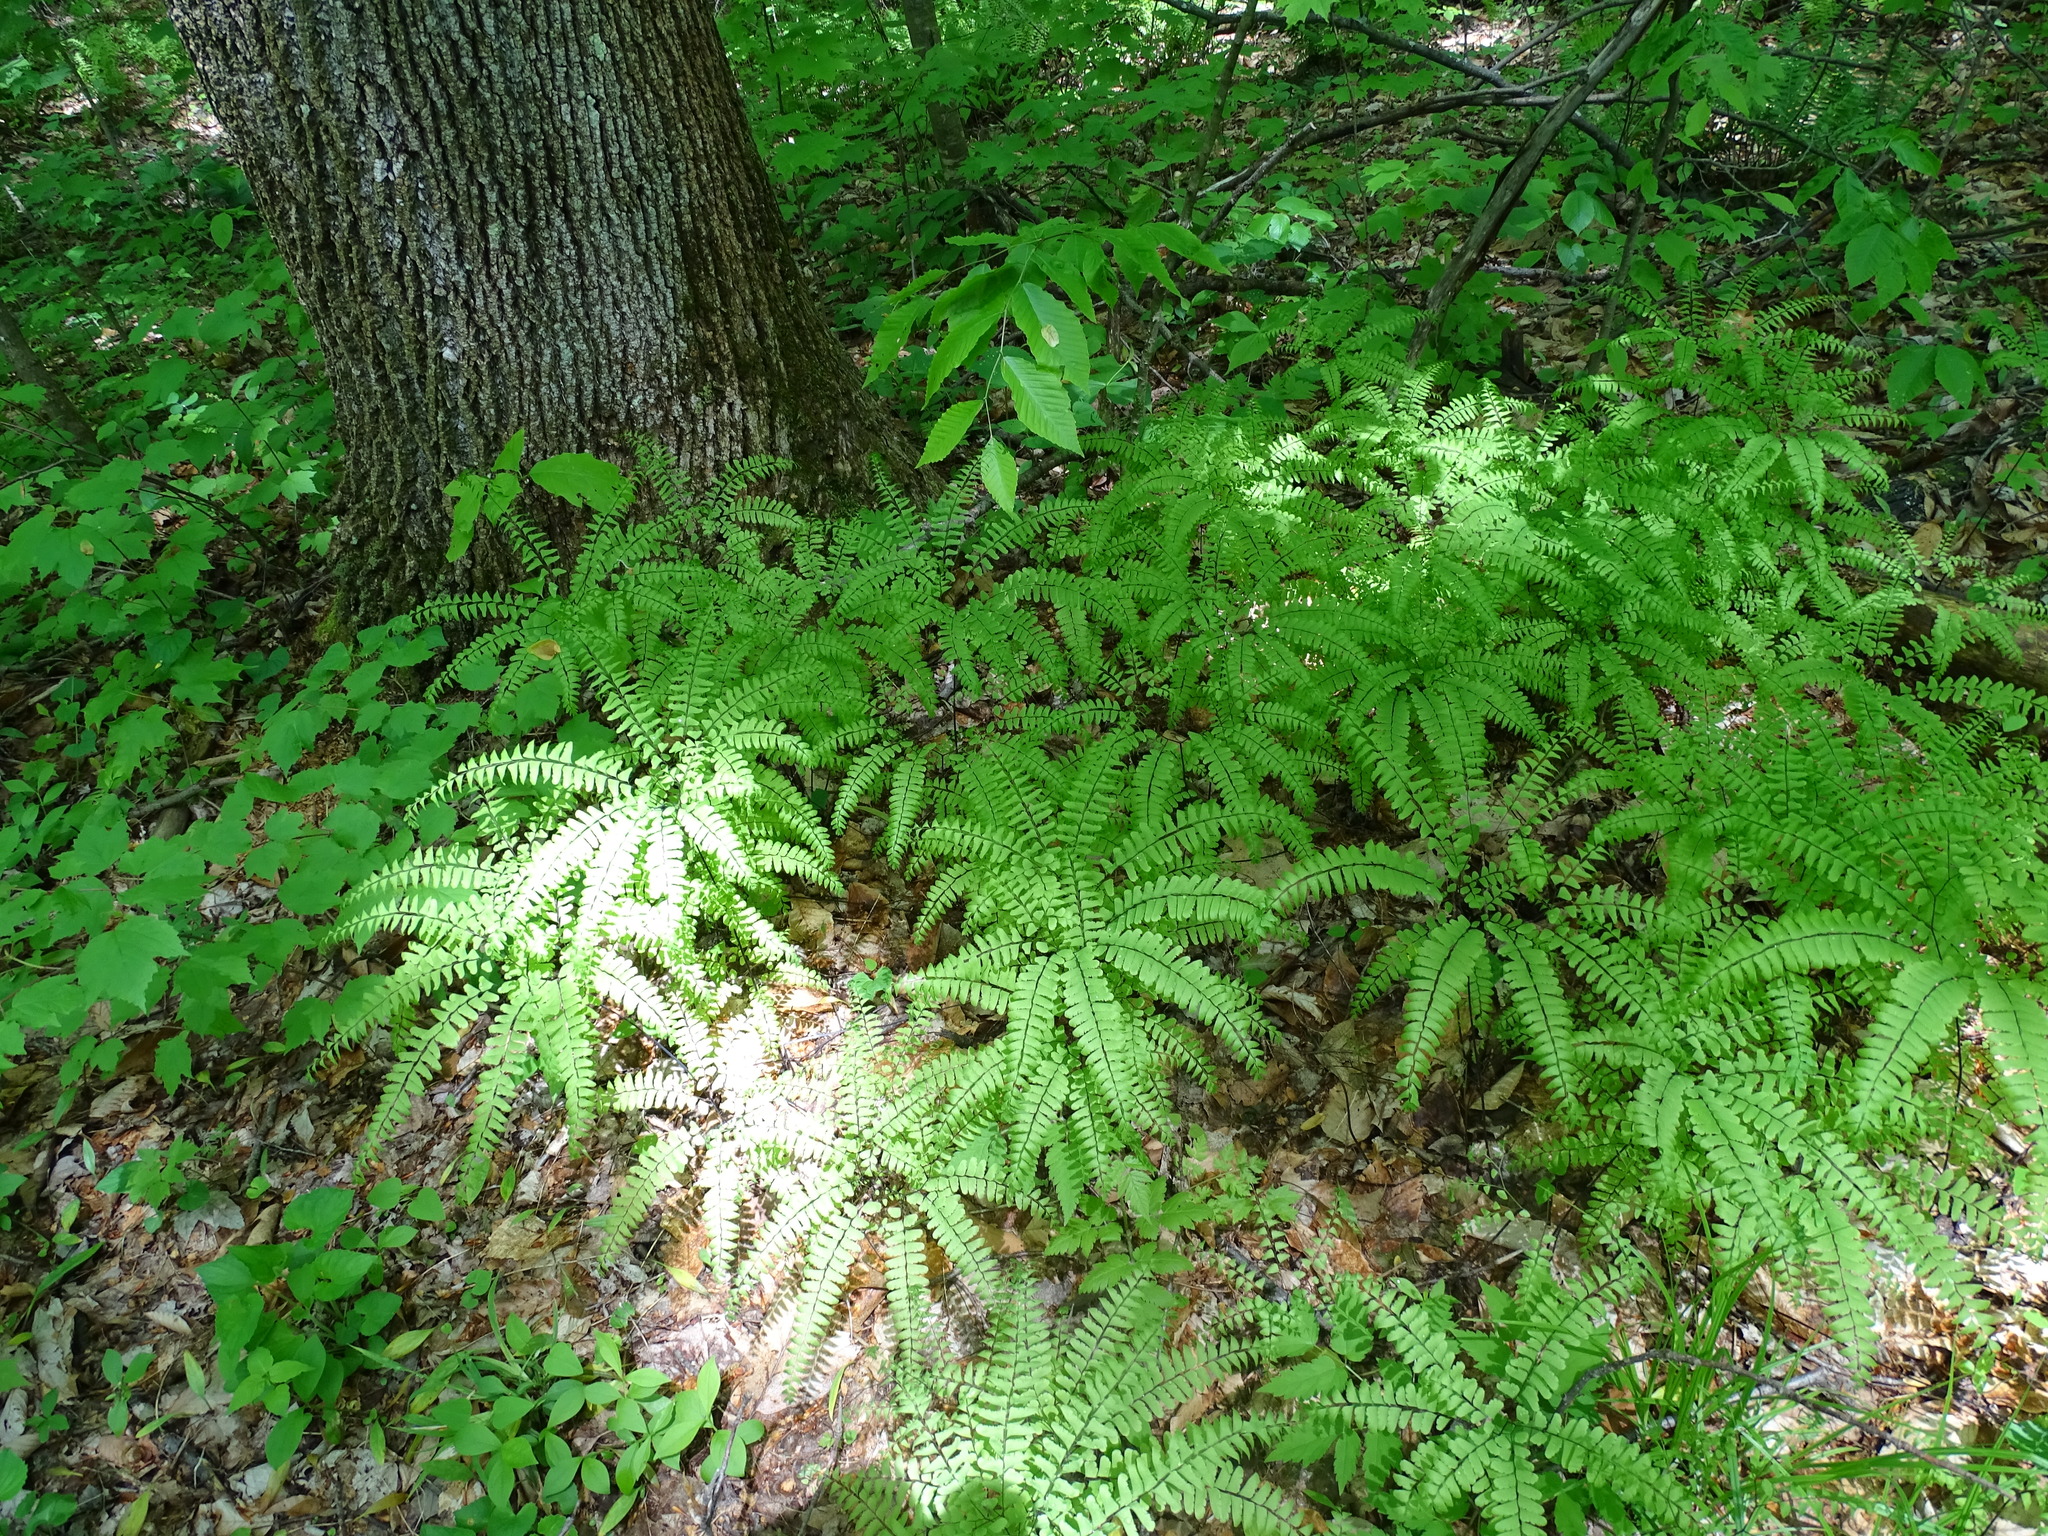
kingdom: Plantae
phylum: Tracheophyta
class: Polypodiopsida
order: Polypodiales
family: Pteridaceae
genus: Adiantum
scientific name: Adiantum pedatum
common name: Five-finger fern
